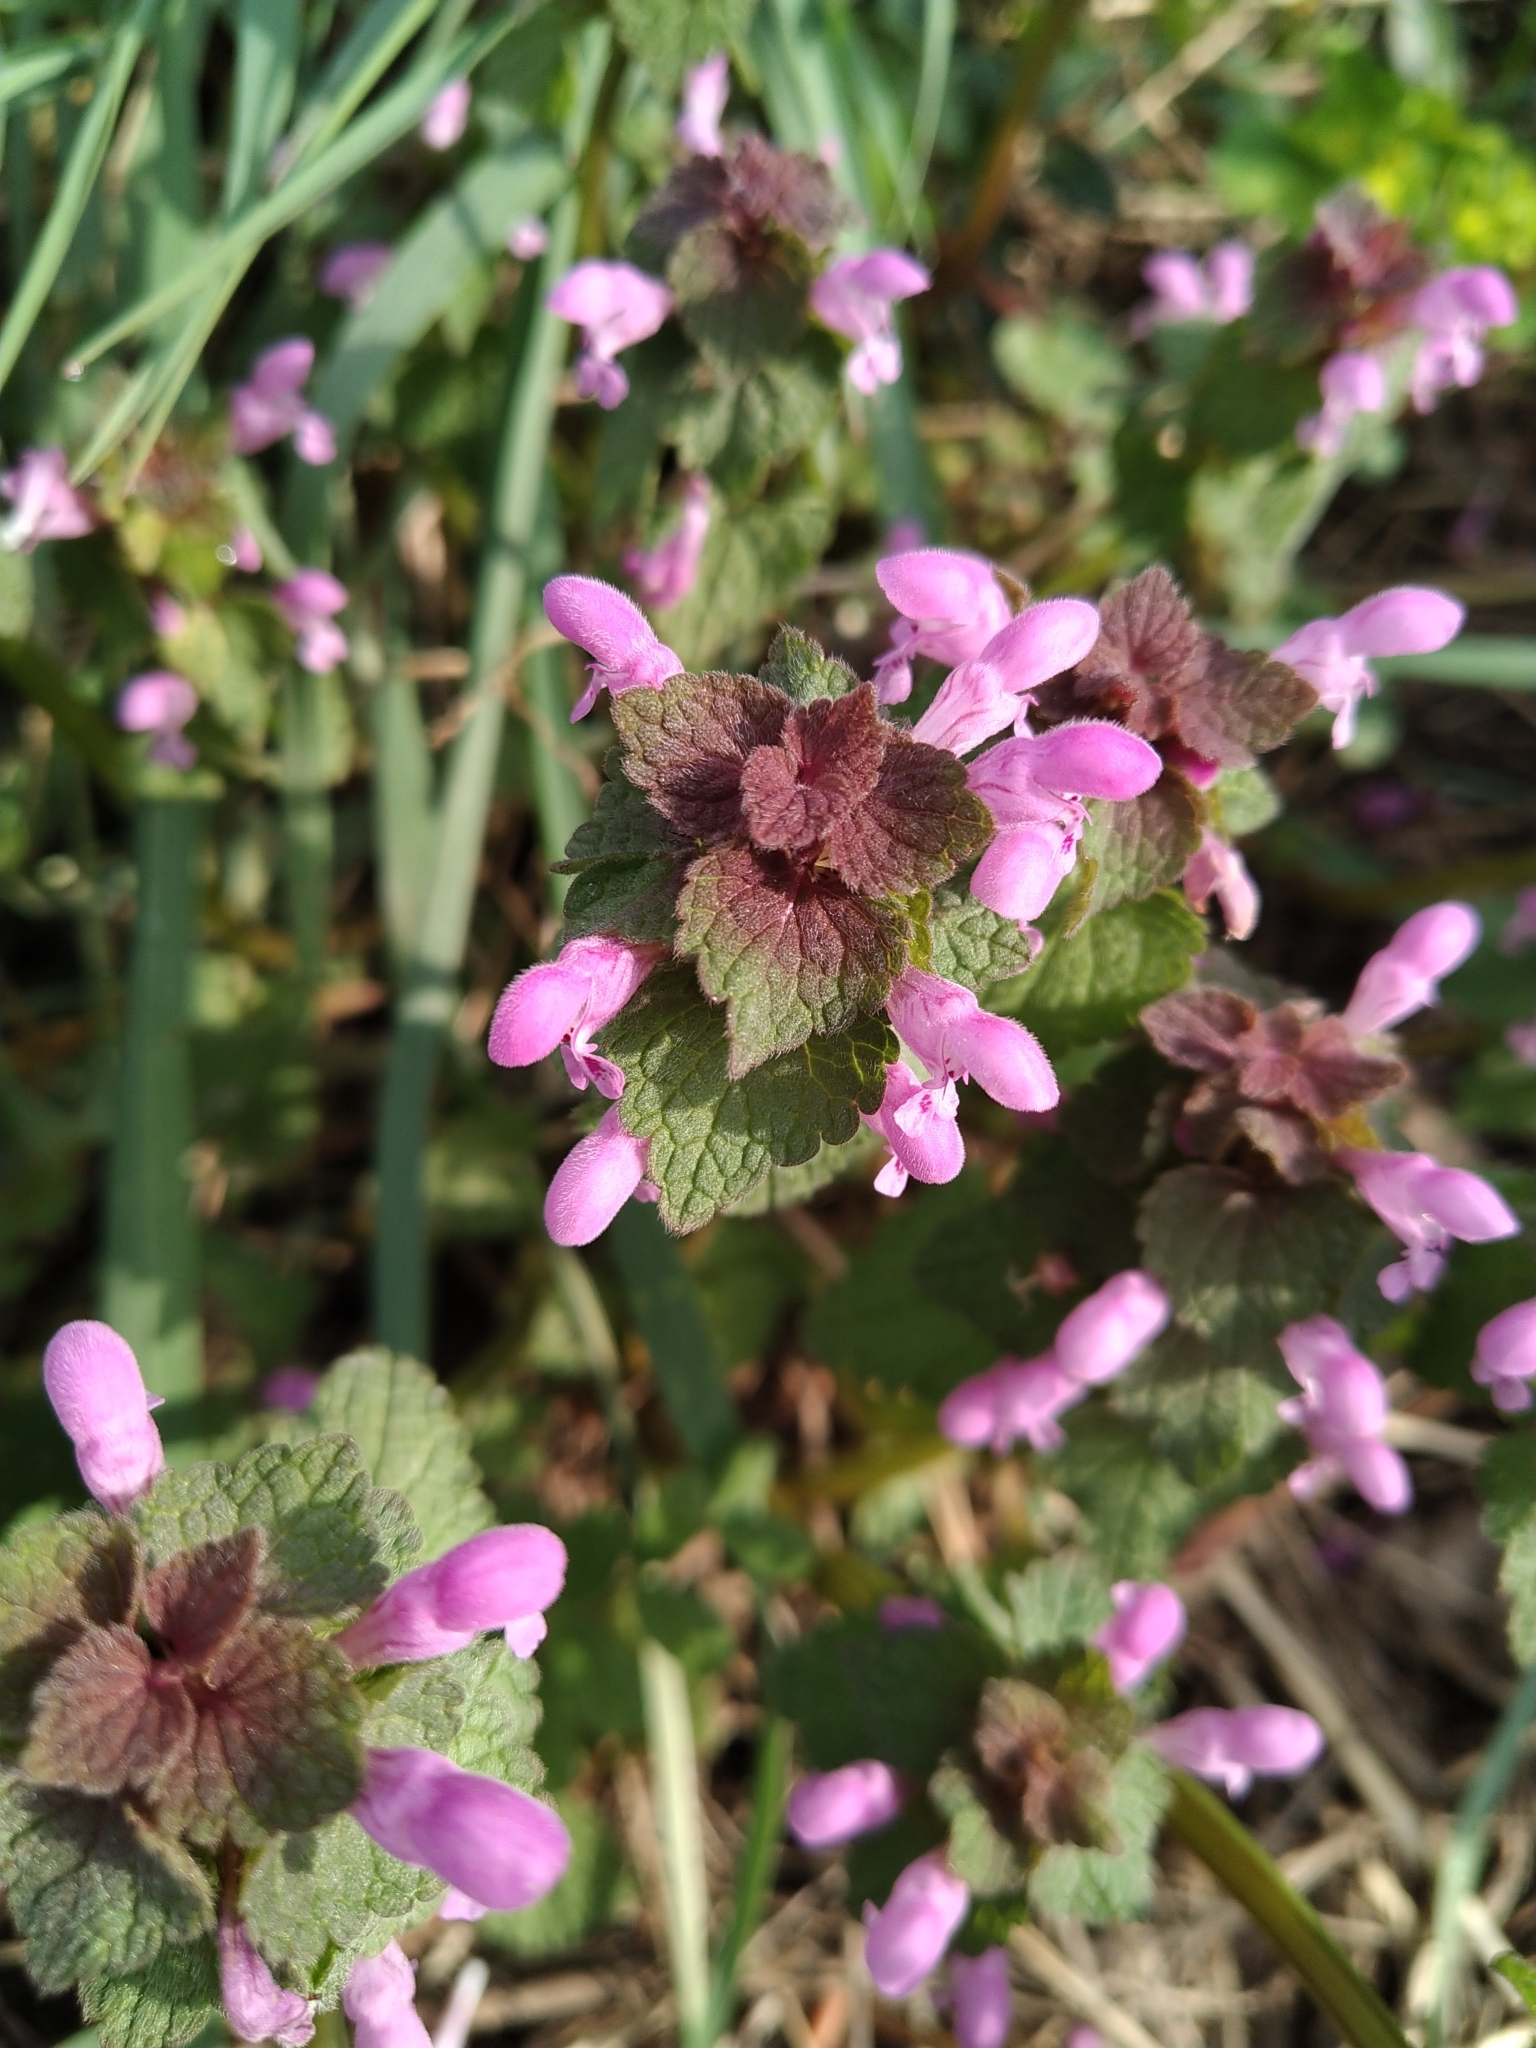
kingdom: Plantae
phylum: Tracheophyta
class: Magnoliopsida
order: Lamiales
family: Lamiaceae
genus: Lamium
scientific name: Lamium purpureum
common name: Red dead-nettle
